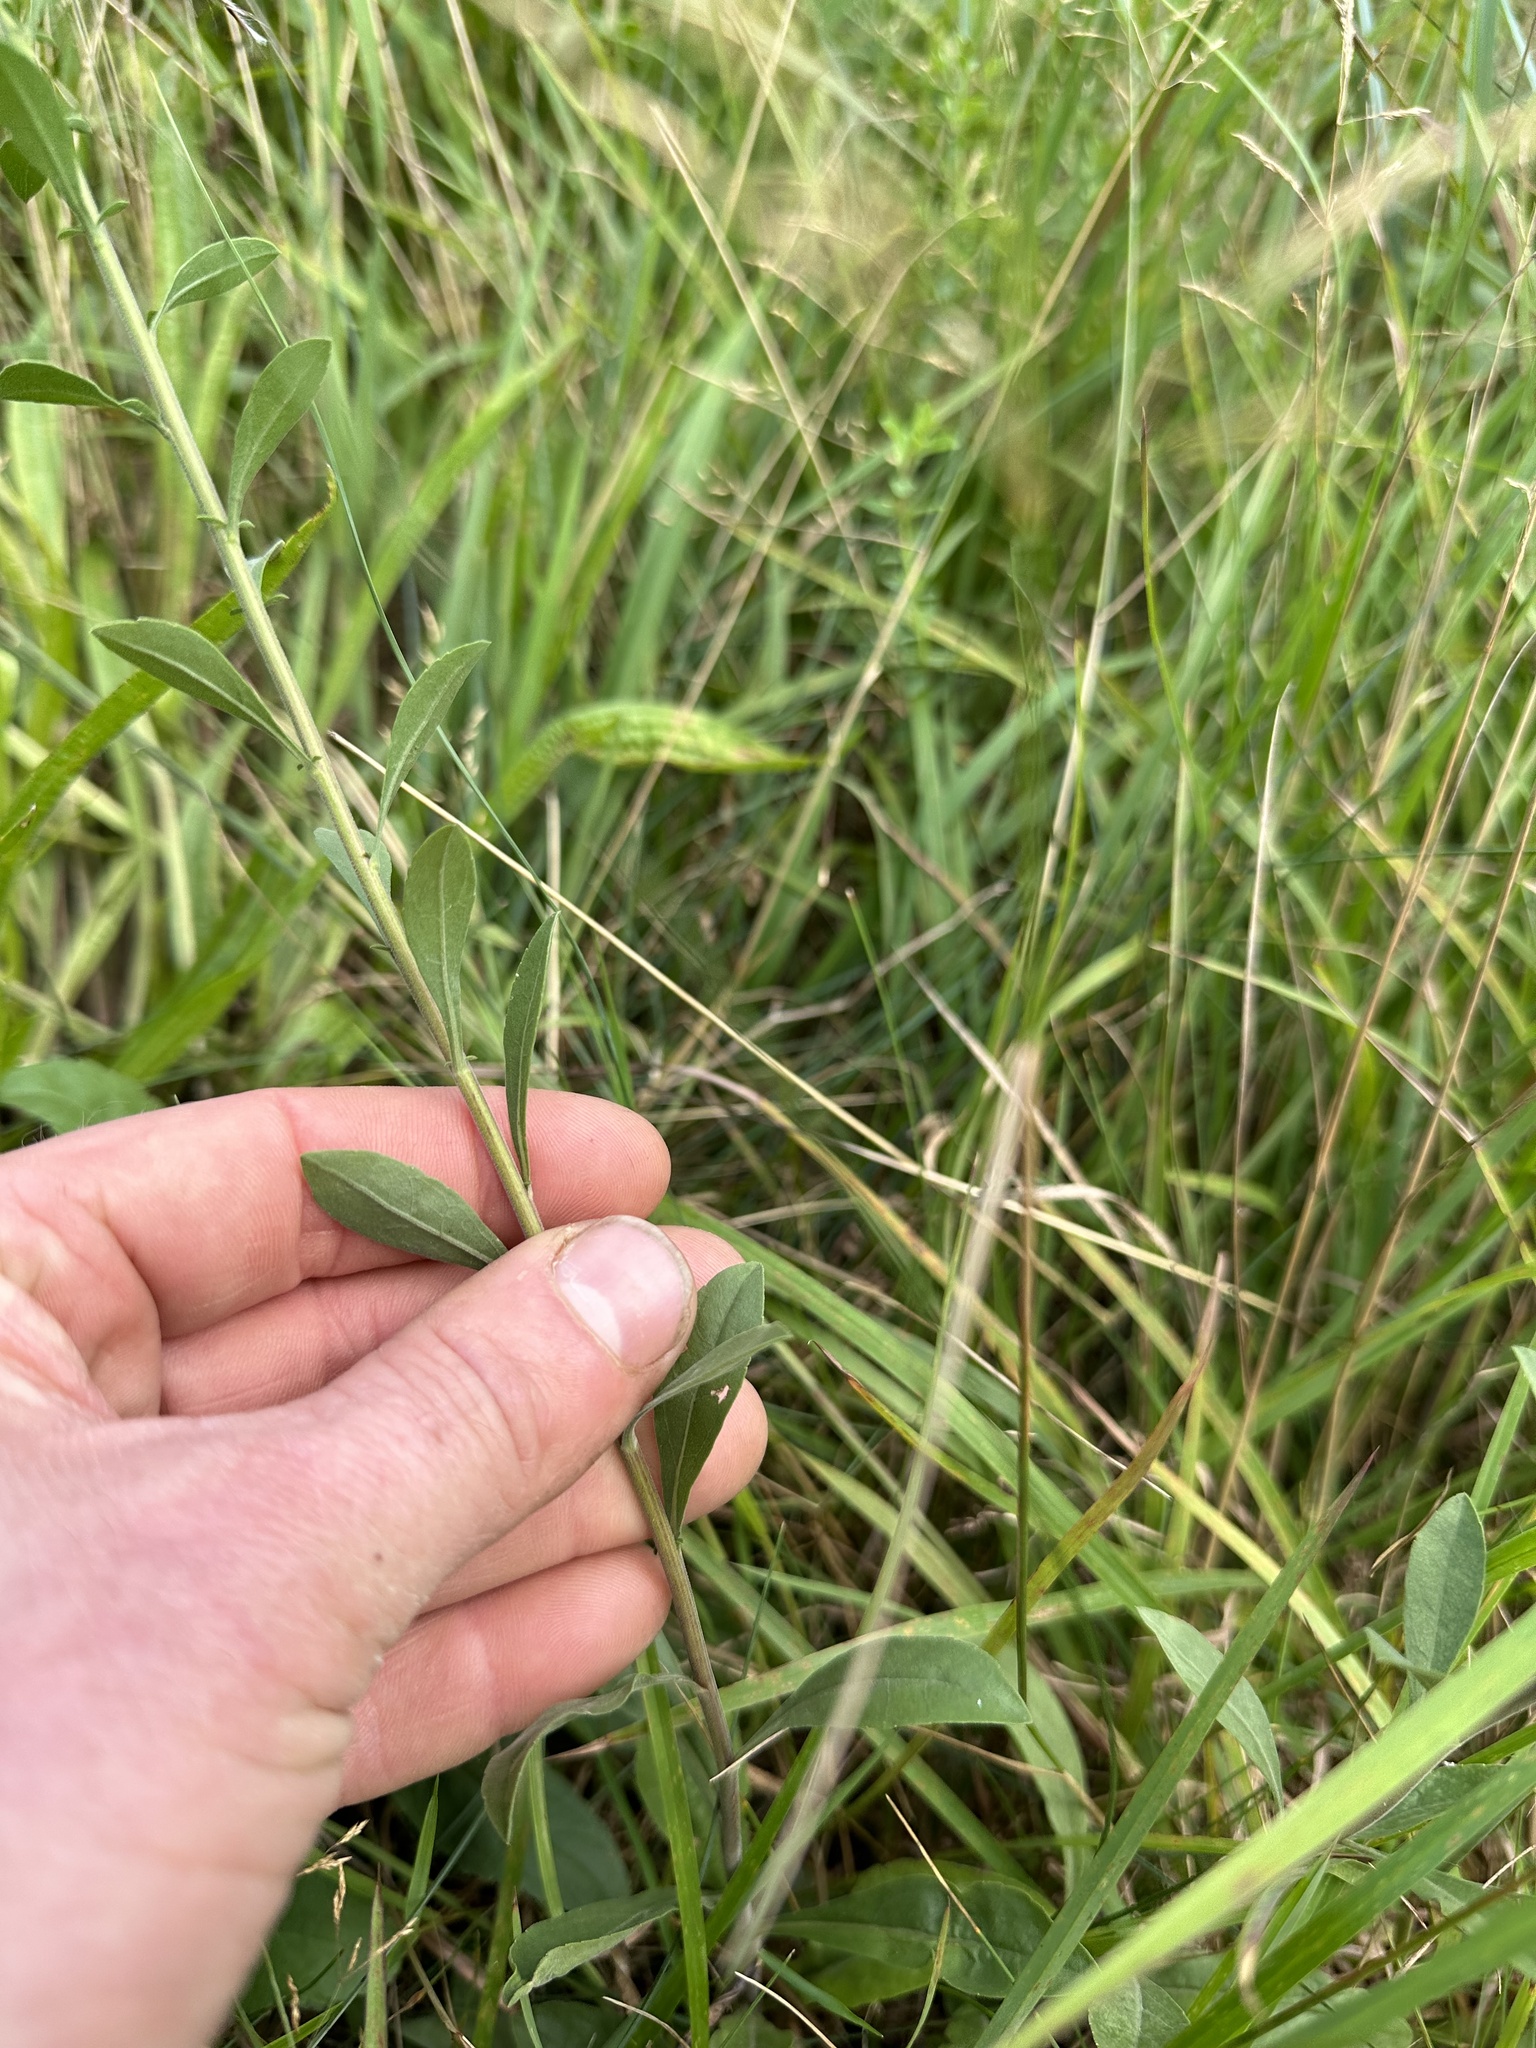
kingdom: Plantae
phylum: Tracheophyta
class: Magnoliopsida
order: Asterales
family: Asteraceae
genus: Solidago
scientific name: Solidago nemoralis
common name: Grey goldenrod
